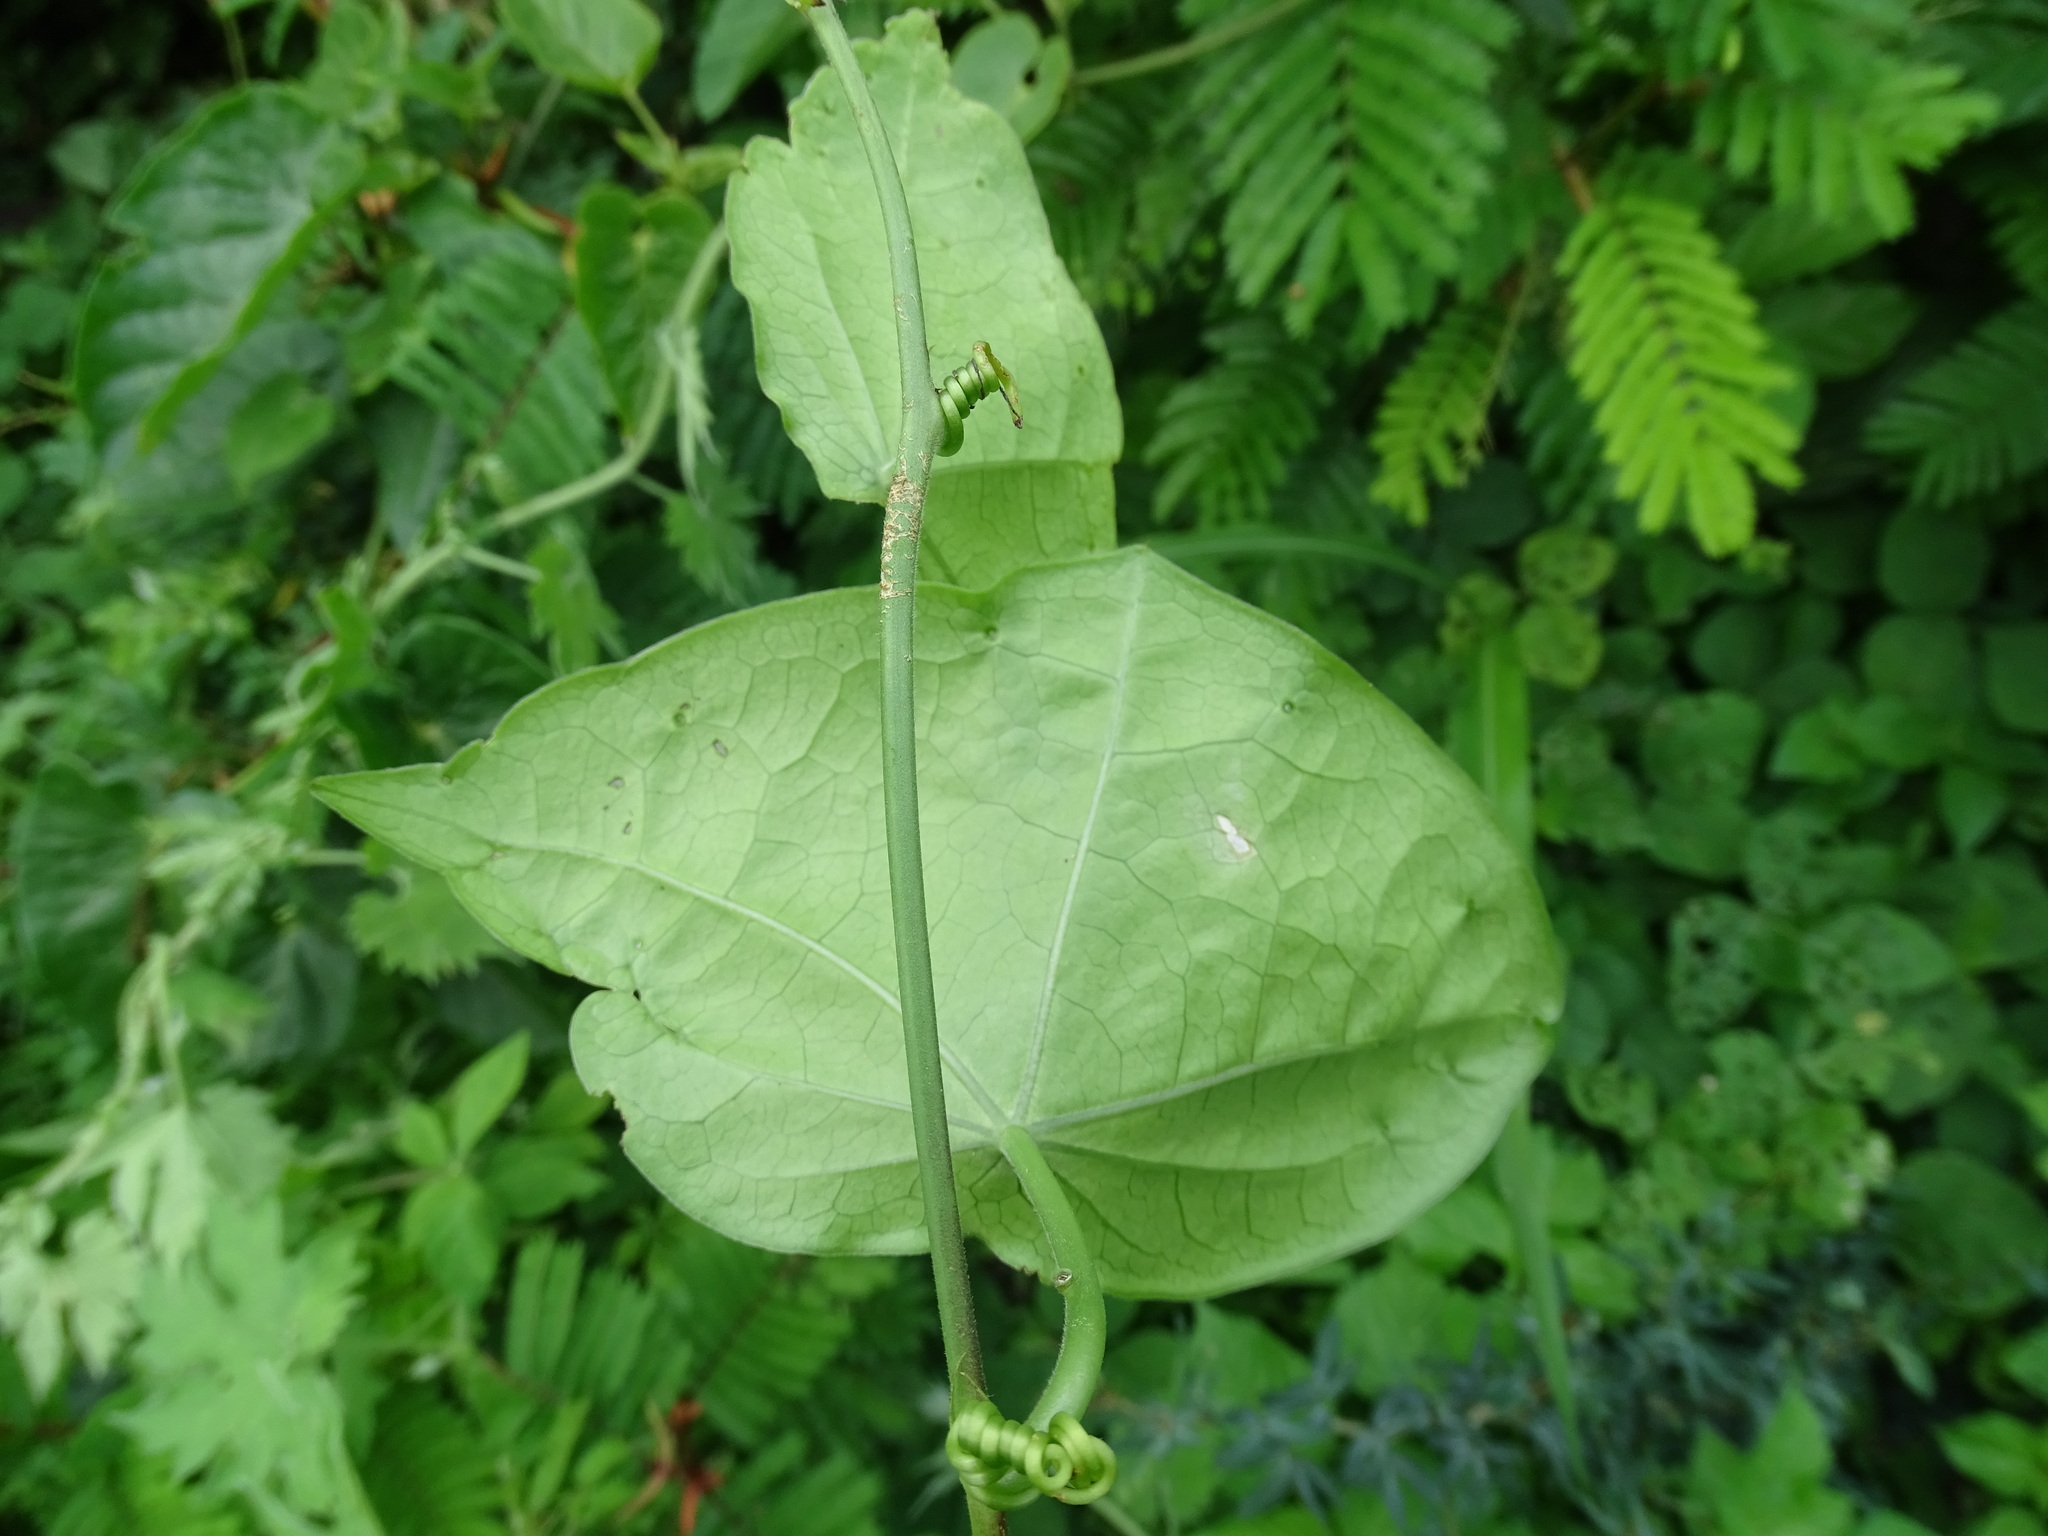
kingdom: Plantae
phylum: Tracheophyta
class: Magnoliopsida
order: Malpighiales
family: Passifloraceae
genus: Passiflora
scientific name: Passiflora sexocellata
